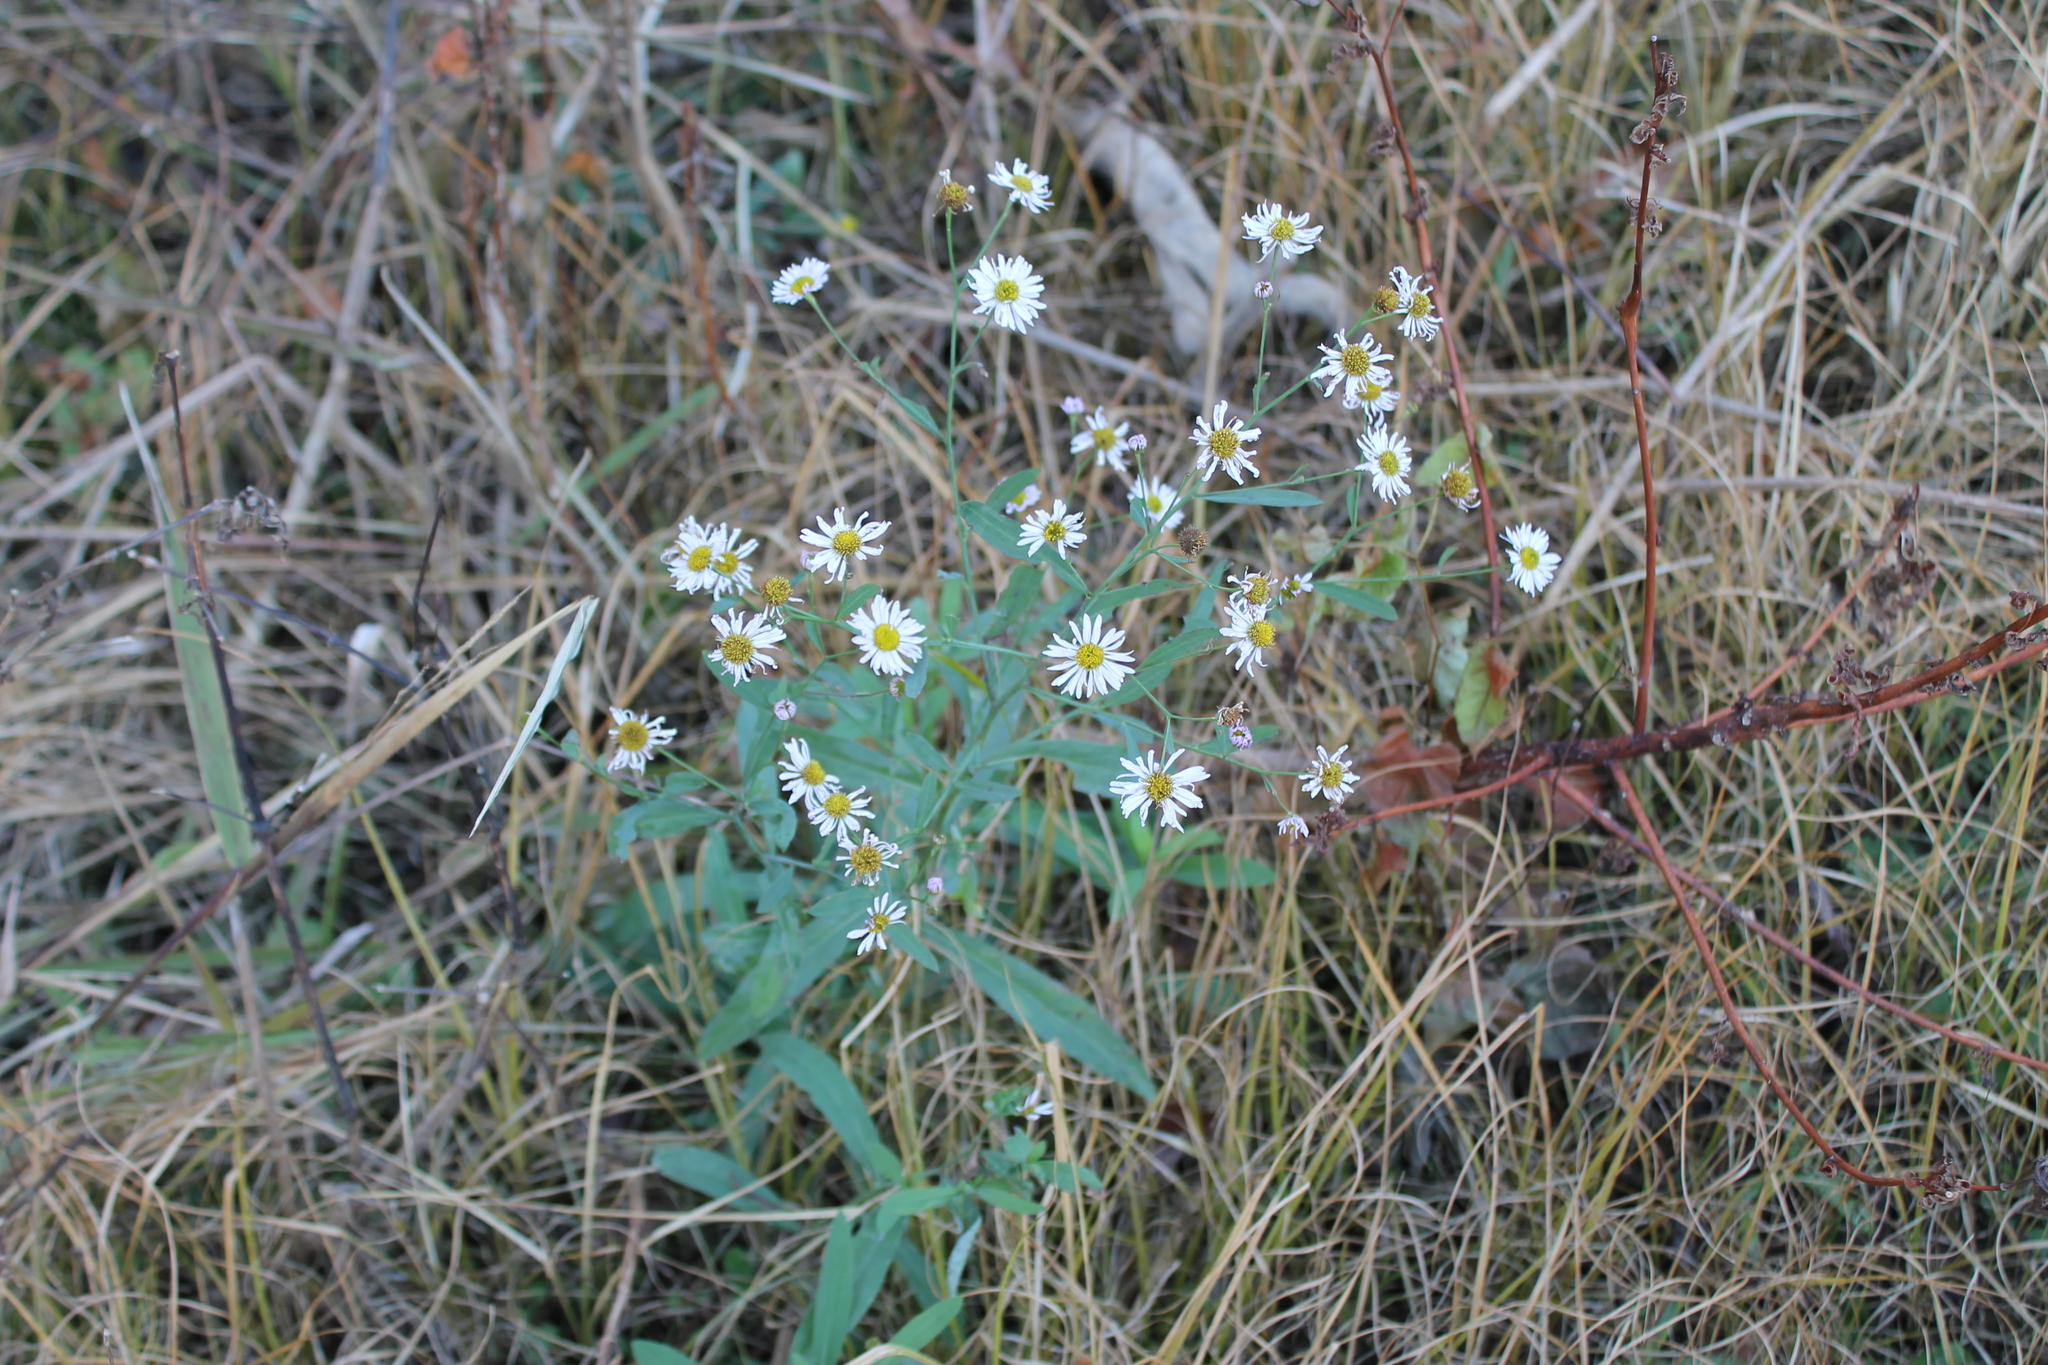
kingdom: Plantae
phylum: Tracheophyta
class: Magnoliopsida
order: Asterales
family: Asteraceae
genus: Boltonia
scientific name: Boltonia asteroides
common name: False chamomile
